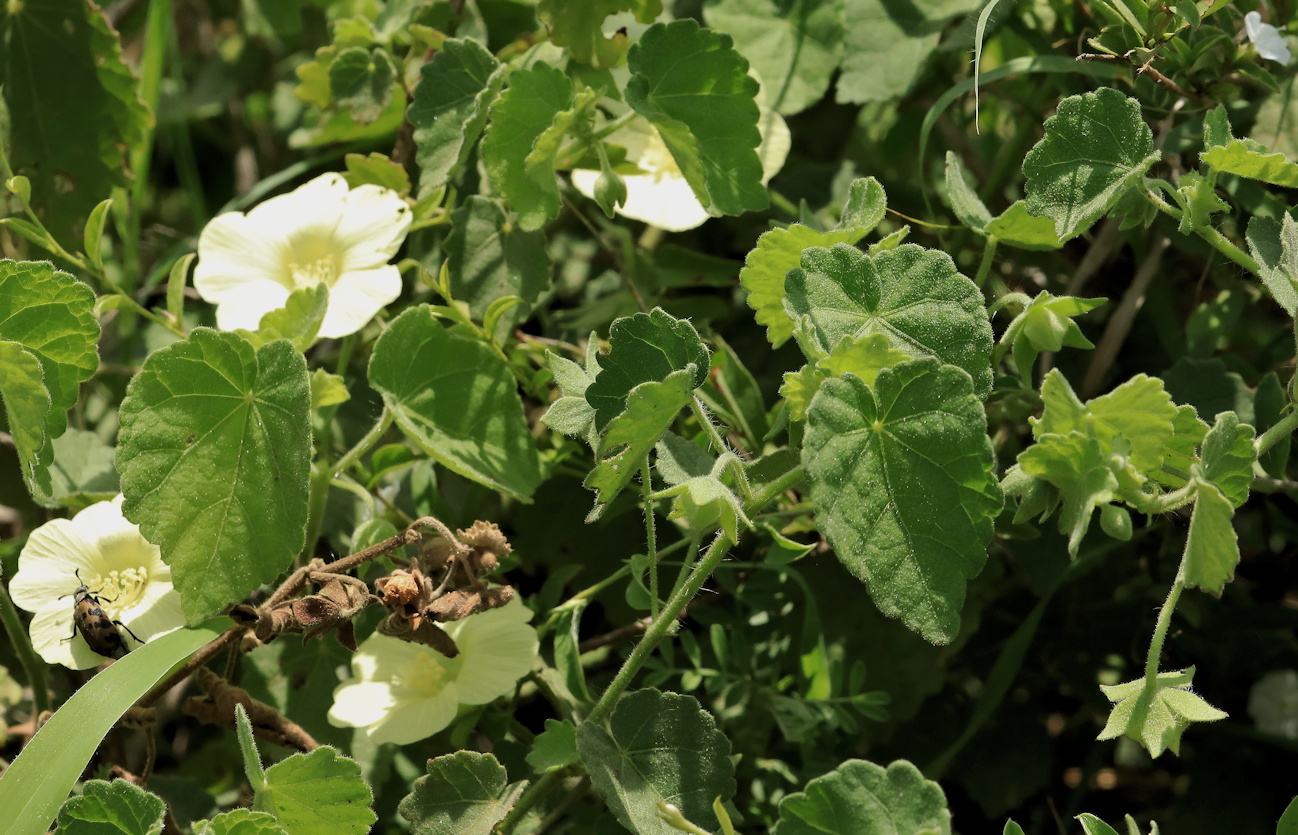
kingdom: Plantae
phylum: Tracheophyta
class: Magnoliopsida
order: Malvales
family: Malvaceae
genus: Pavonia
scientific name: Pavonia burchellii
